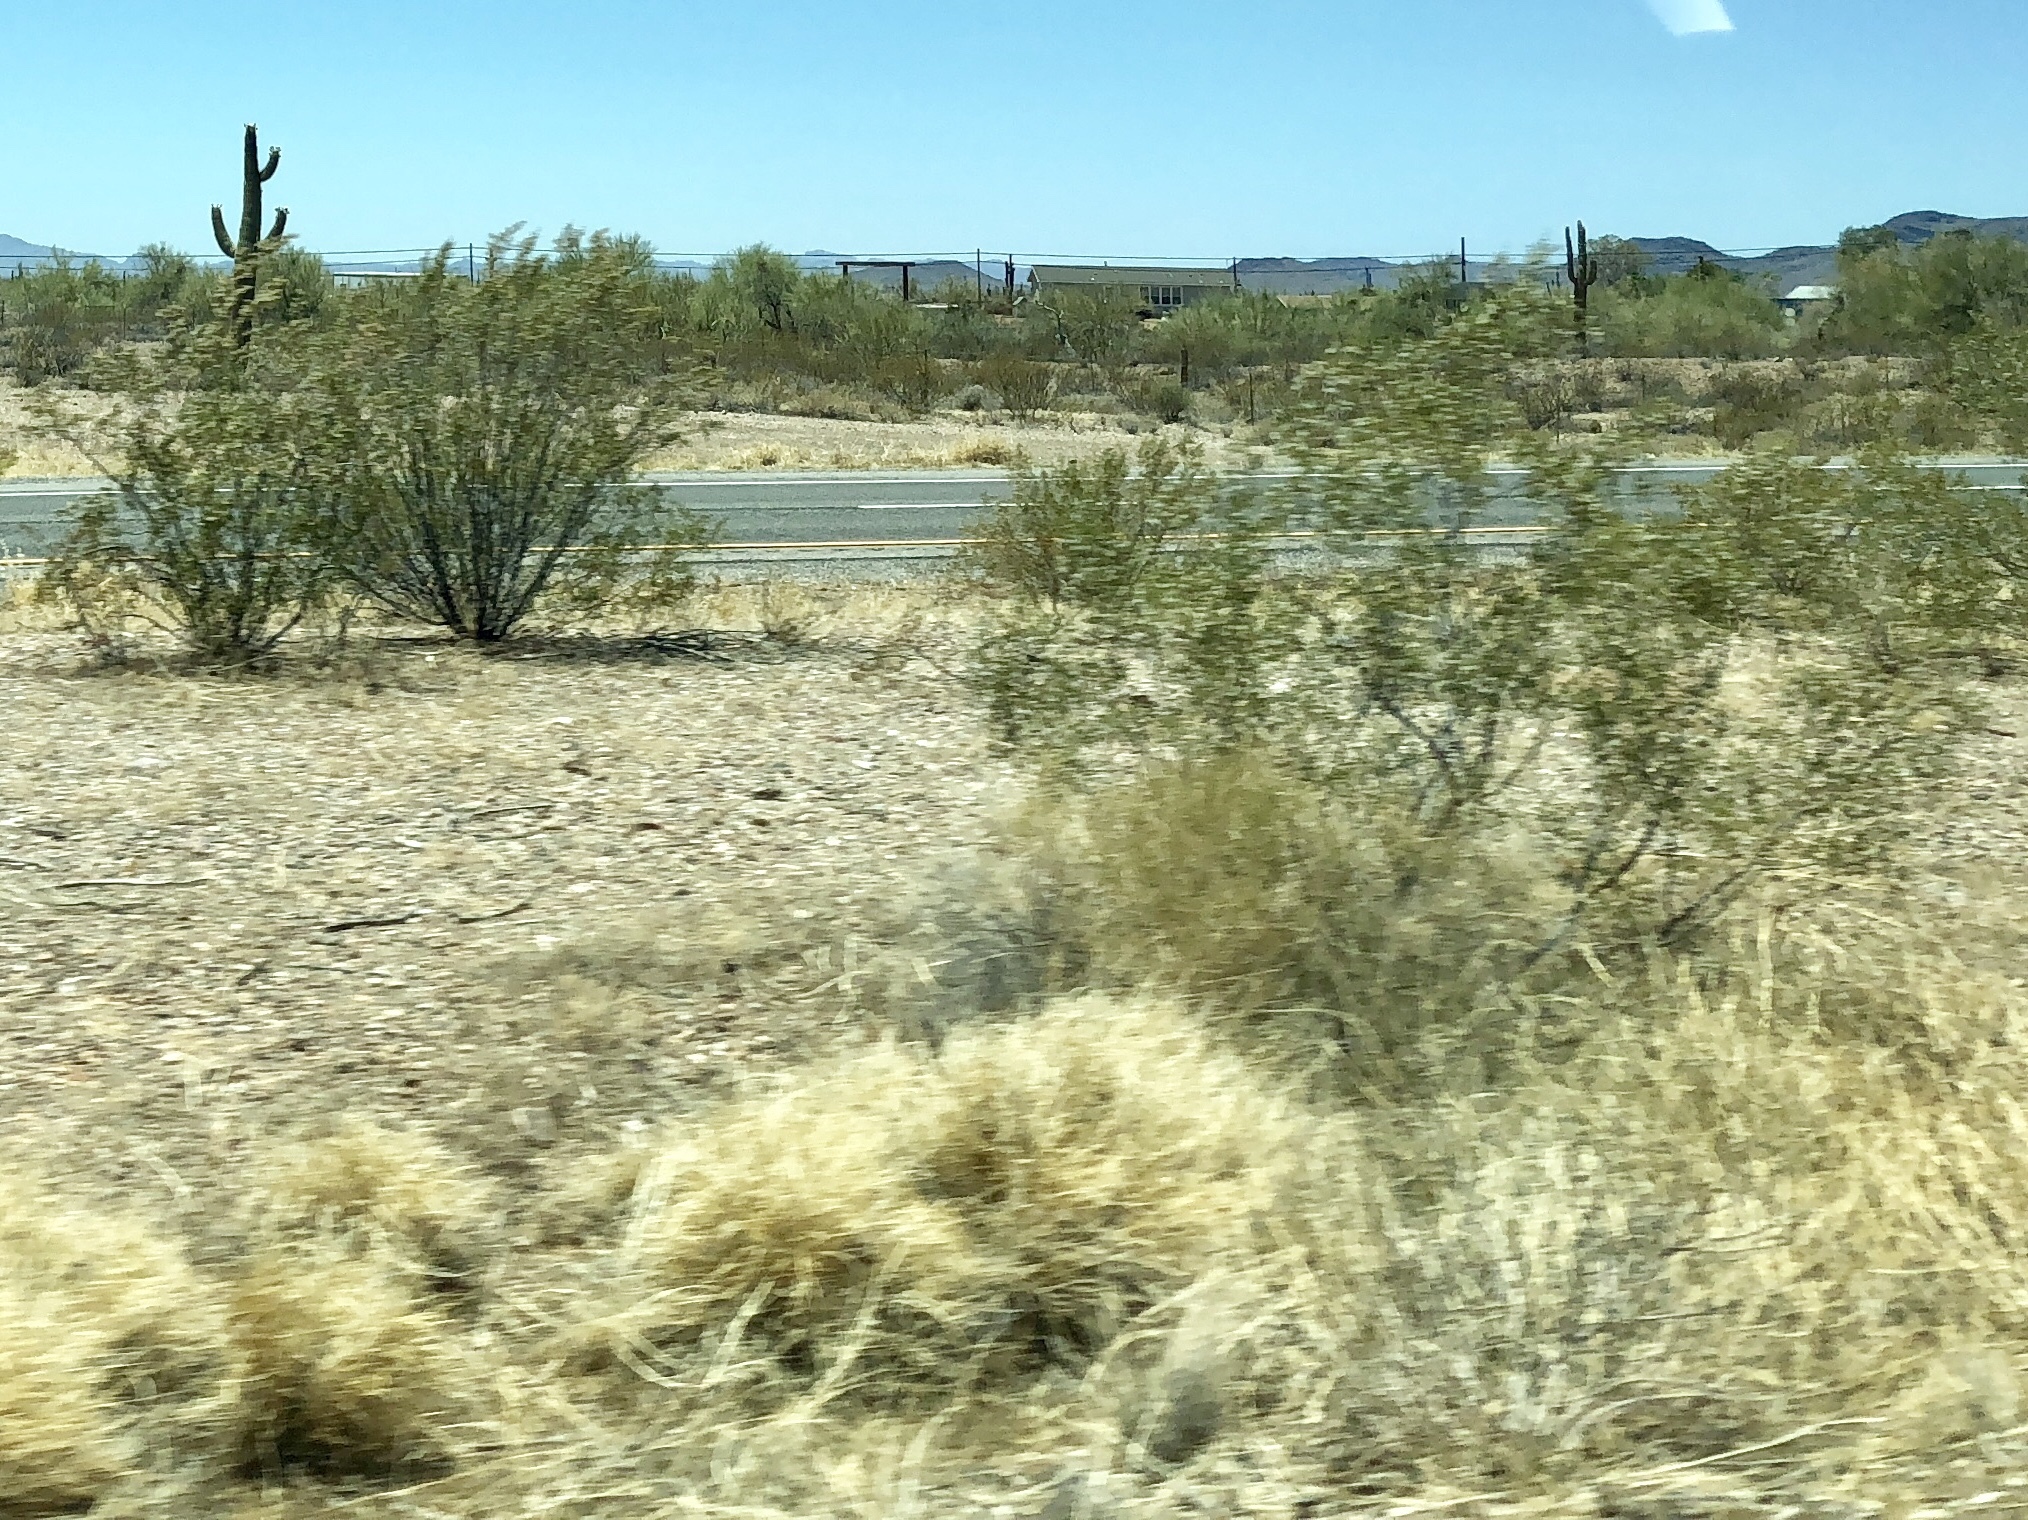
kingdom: Plantae
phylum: Tracheophyta
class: Magnoliopsida
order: Zygophyllales
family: Zygophyllaceae
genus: Larrea
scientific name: Larrea tridentata
